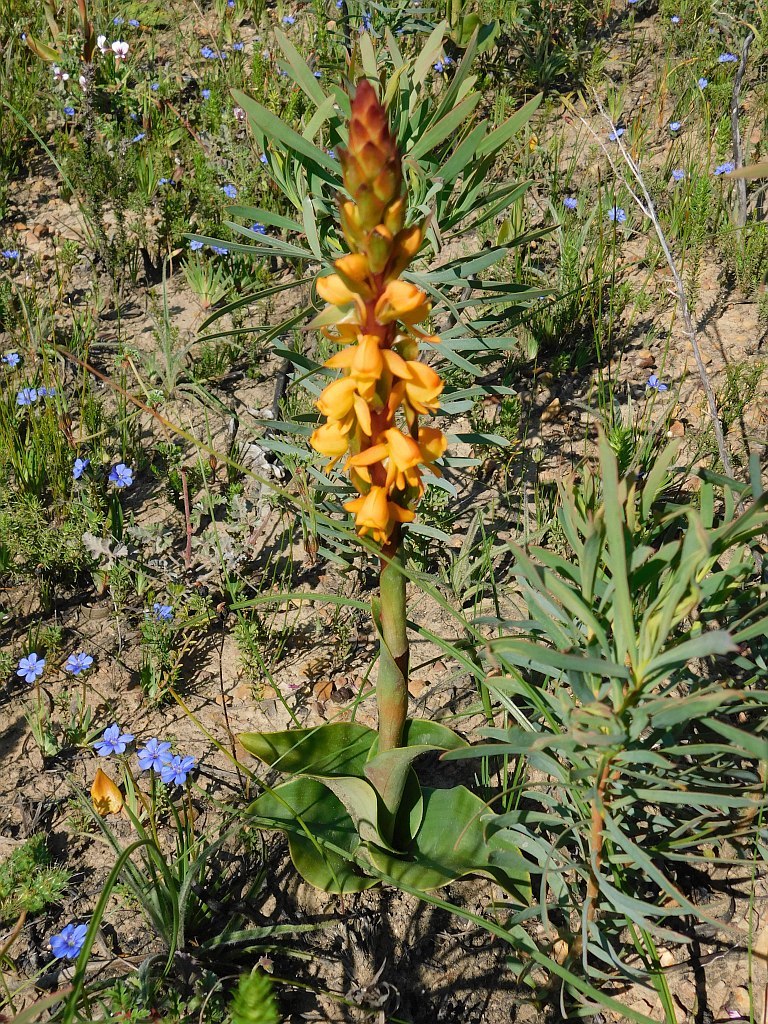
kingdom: Plantae
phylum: Tracheophyta
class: Liliopsida
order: Asparagales
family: Orchidaceae
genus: Satyrium
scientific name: Satyrium coriifolium
